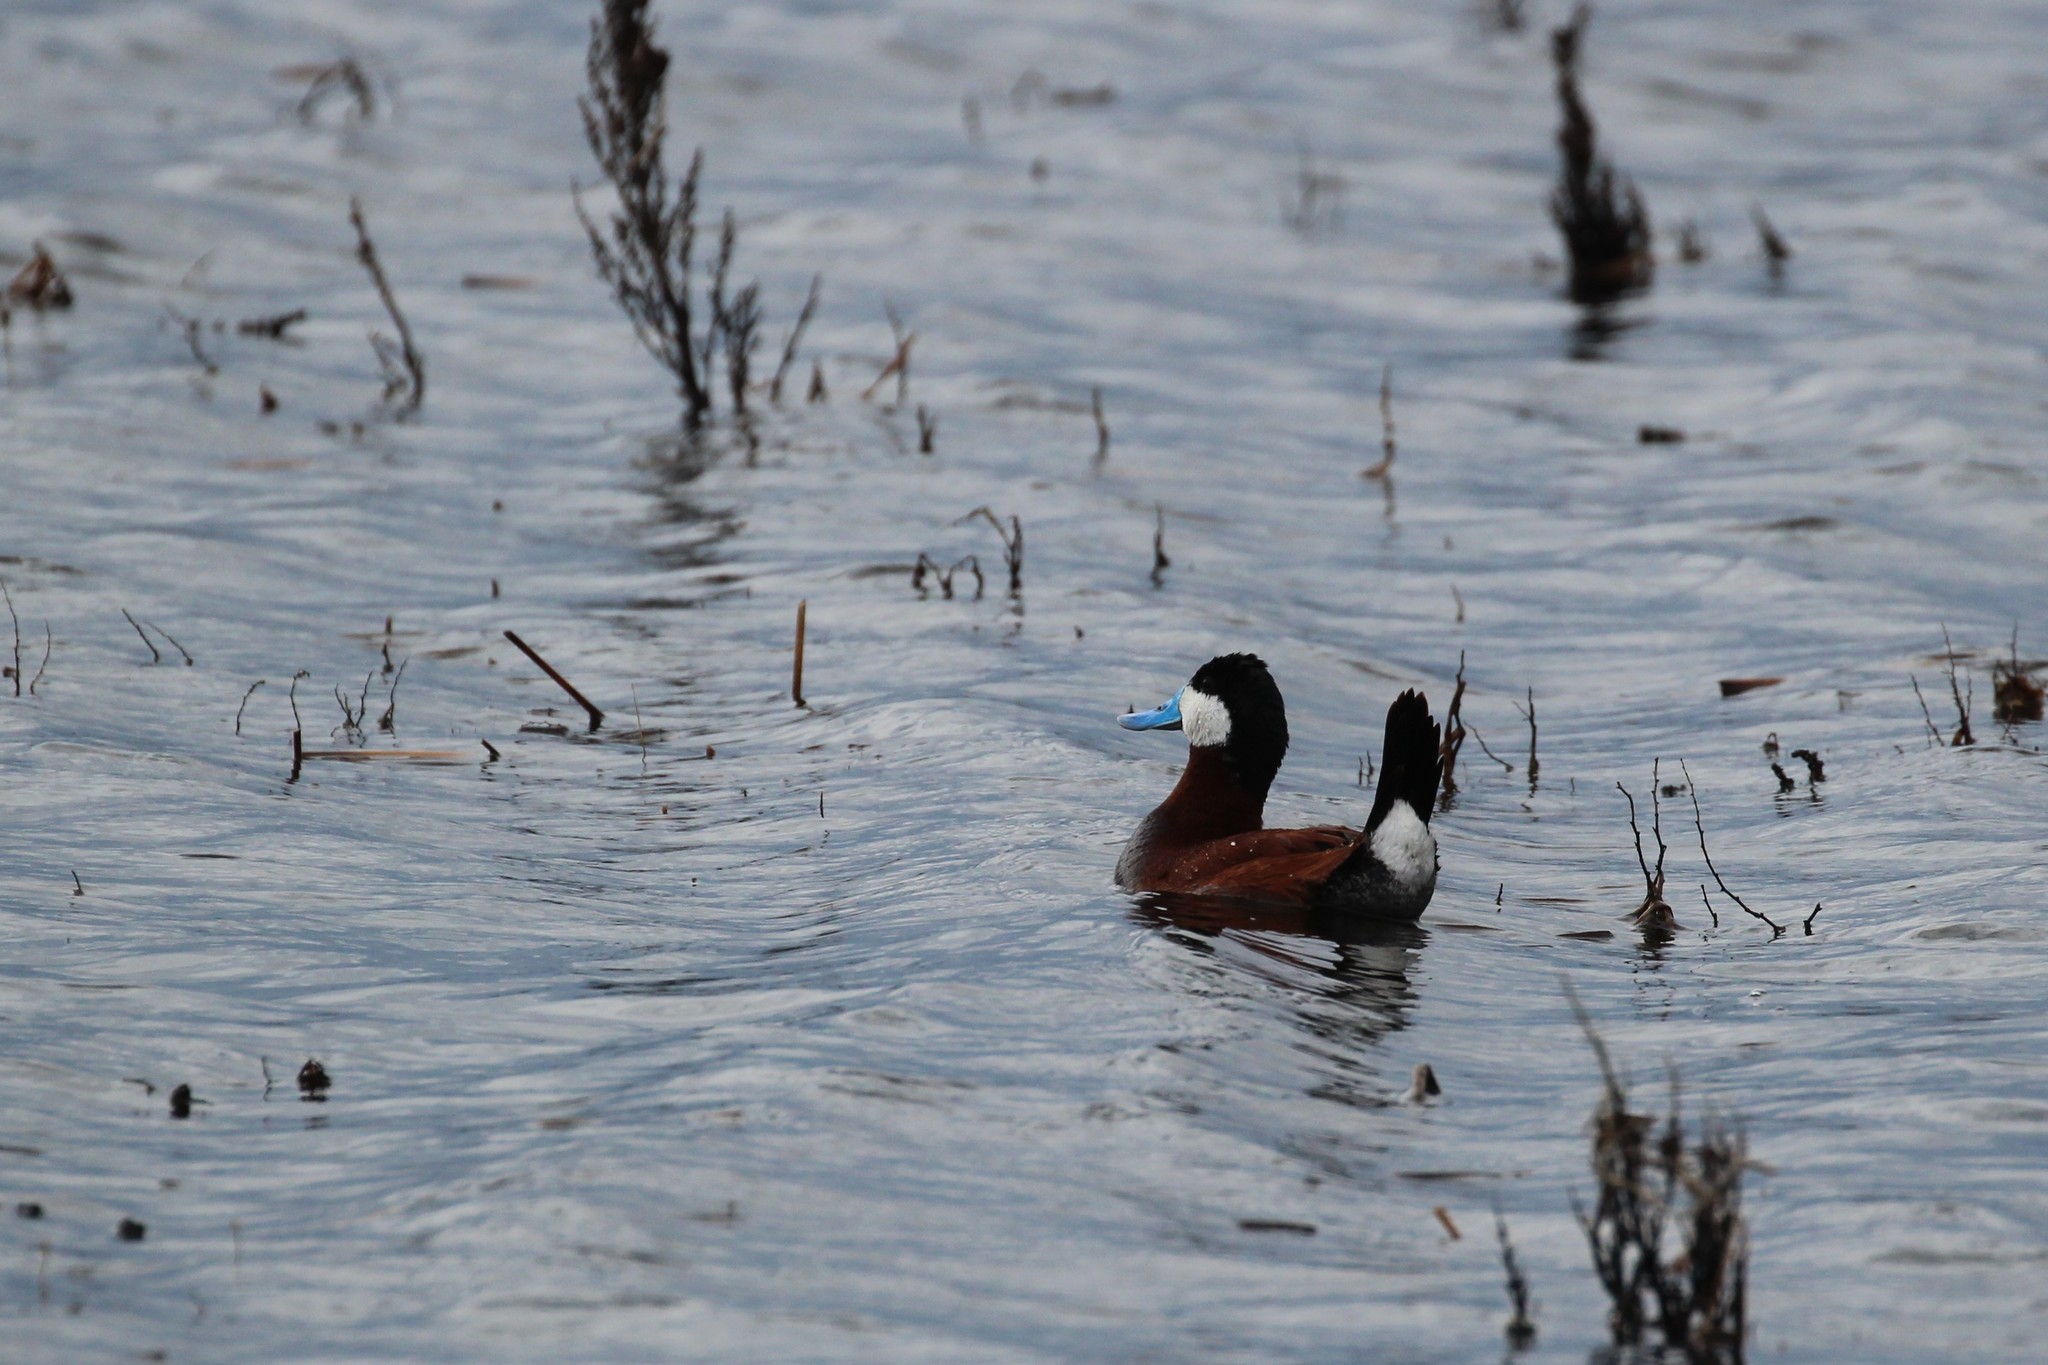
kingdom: Animalia
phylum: Chordata
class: Aves
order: Anseriformes
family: Anatidae
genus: Oxyura
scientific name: Oxyura jamaicensis
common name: Ruddy duck
